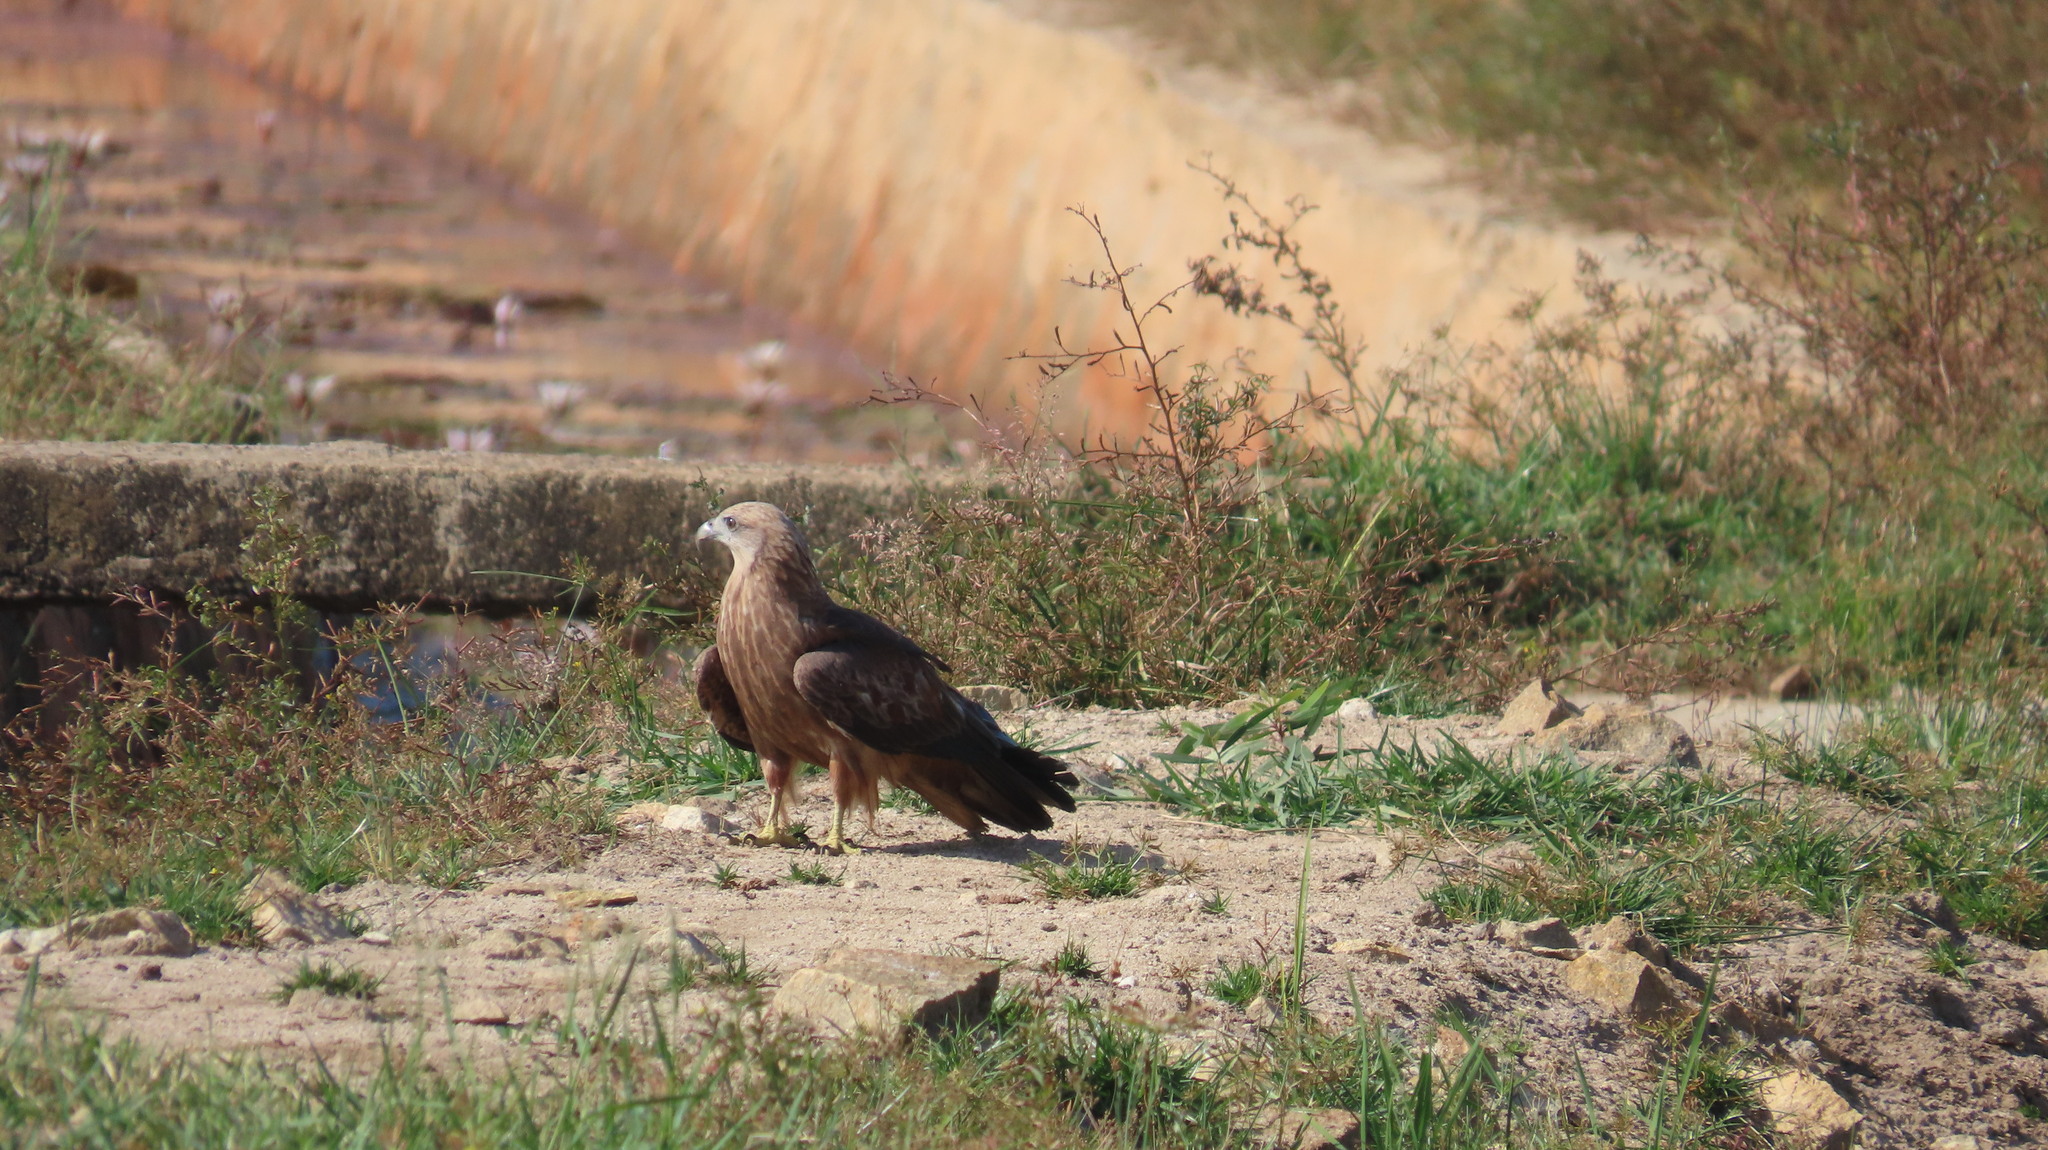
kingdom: Animalia
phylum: Chordata
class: Aves
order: Accipitriformes
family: Accipitridae
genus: Haliastur
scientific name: Haliastur indus
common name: Brahminy kite
